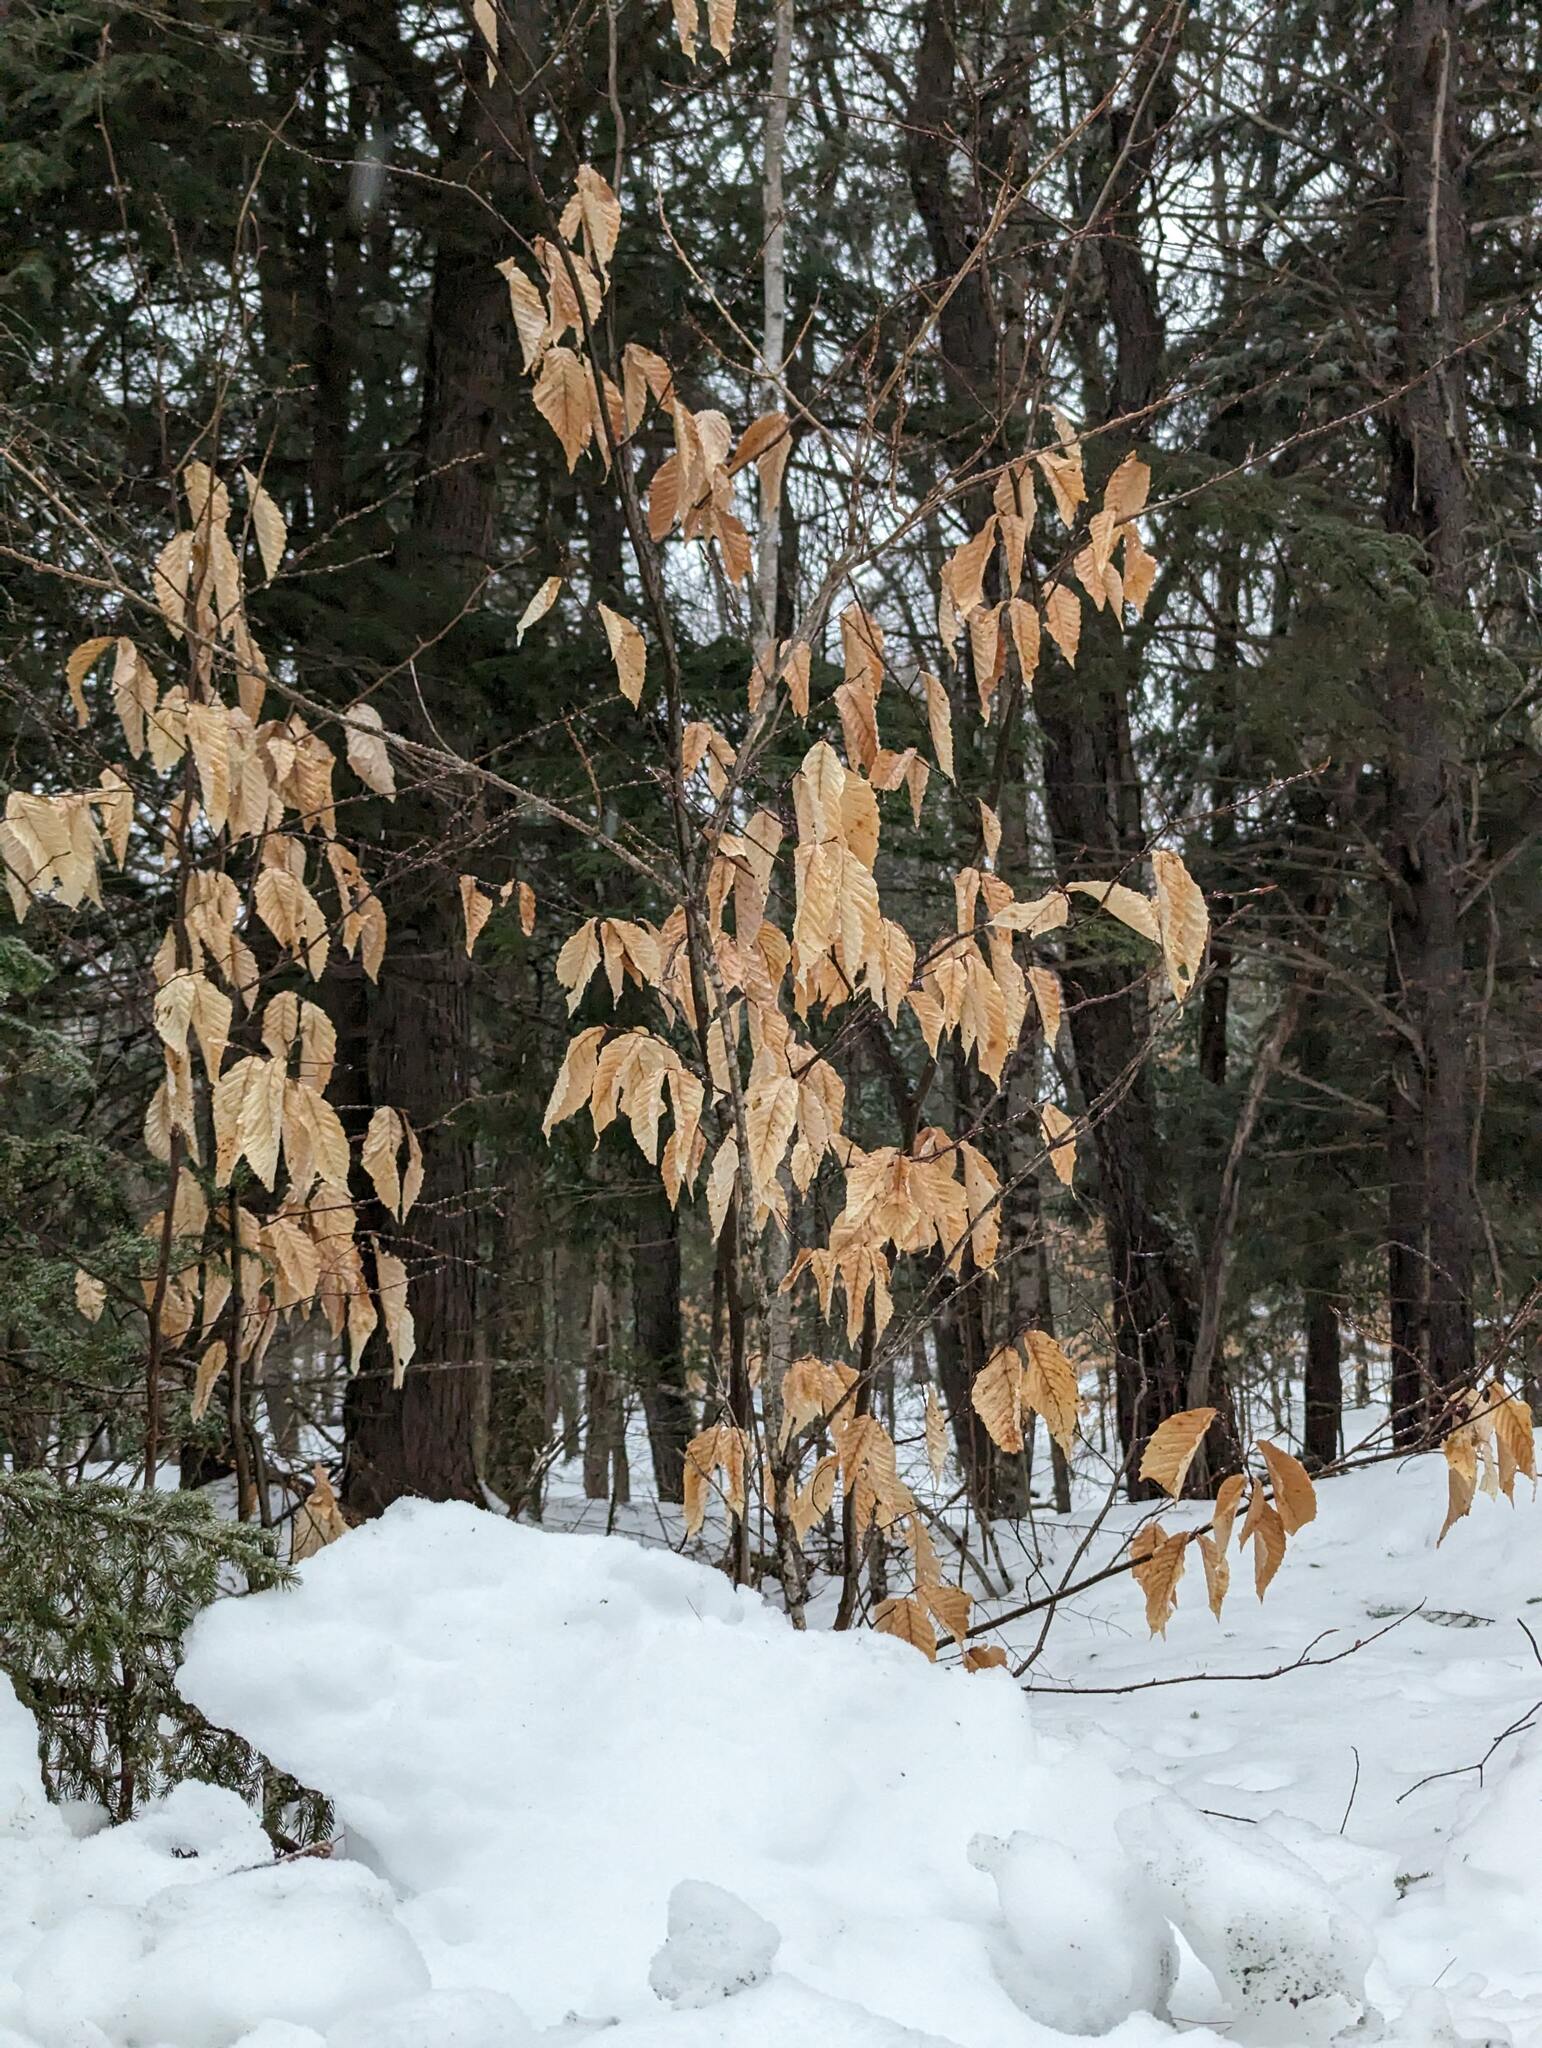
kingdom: Plantae
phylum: Tracheophyta
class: Magnoliopsida
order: Fagales
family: Fagaceae
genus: Fagus
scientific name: Fagus grandifolia
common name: American beech
